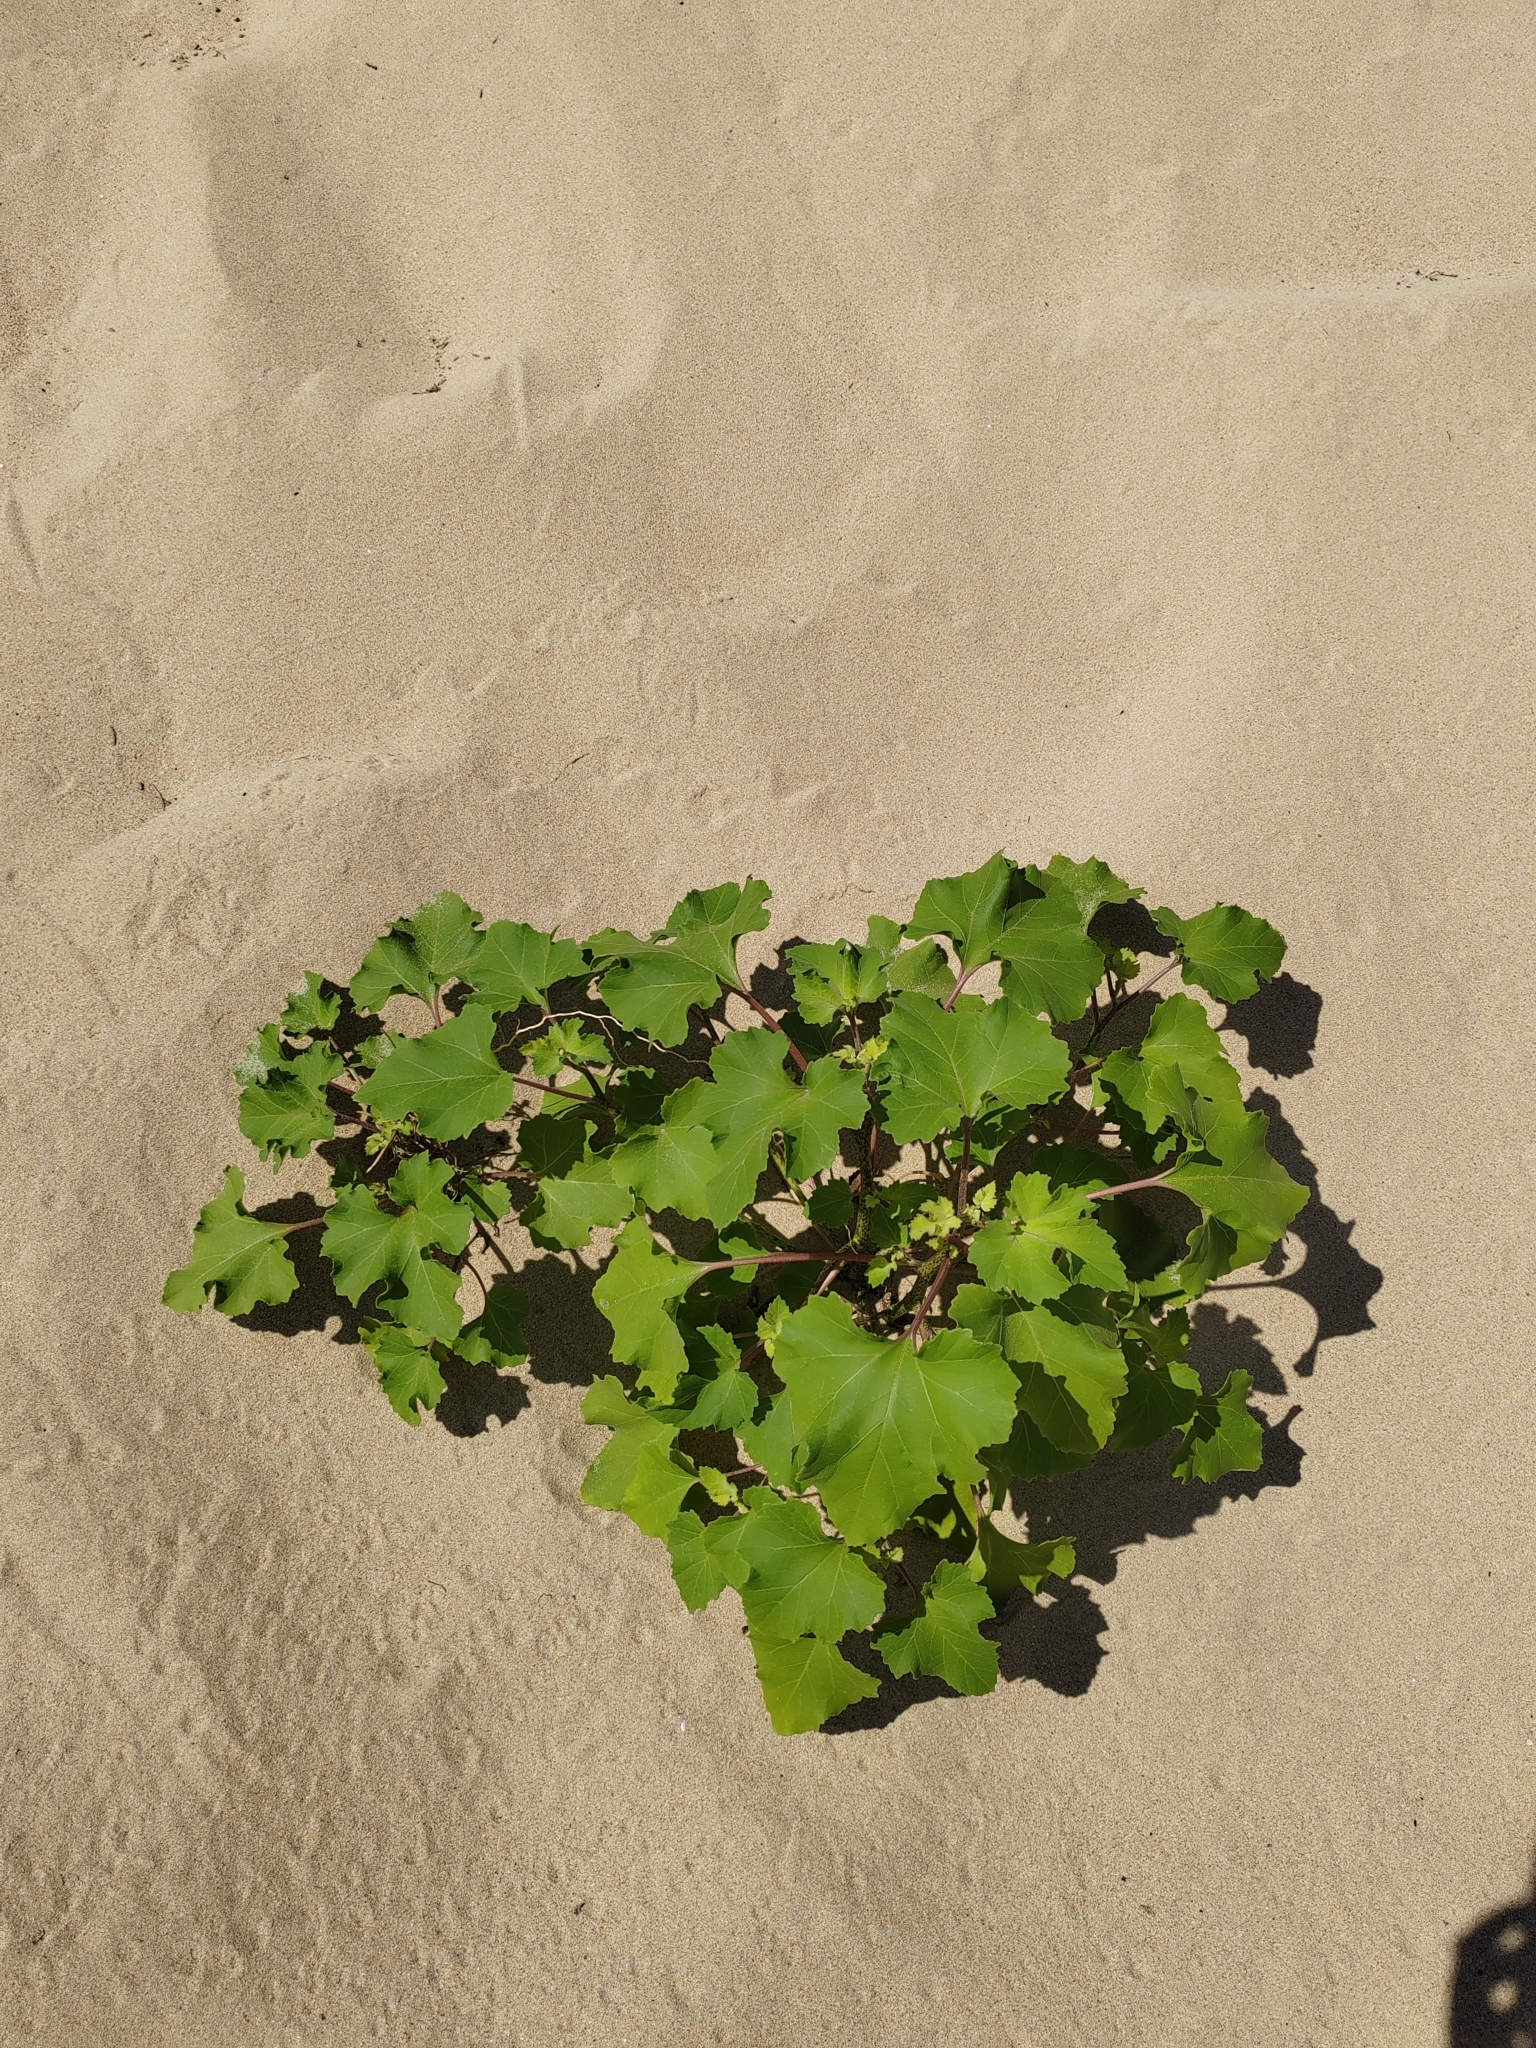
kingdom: Plantae
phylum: Tracheophyta
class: Magnoliopsida
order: Asterales
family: Asteraceae
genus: Xanthium
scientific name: Xanthium orientale
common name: Californian burr
